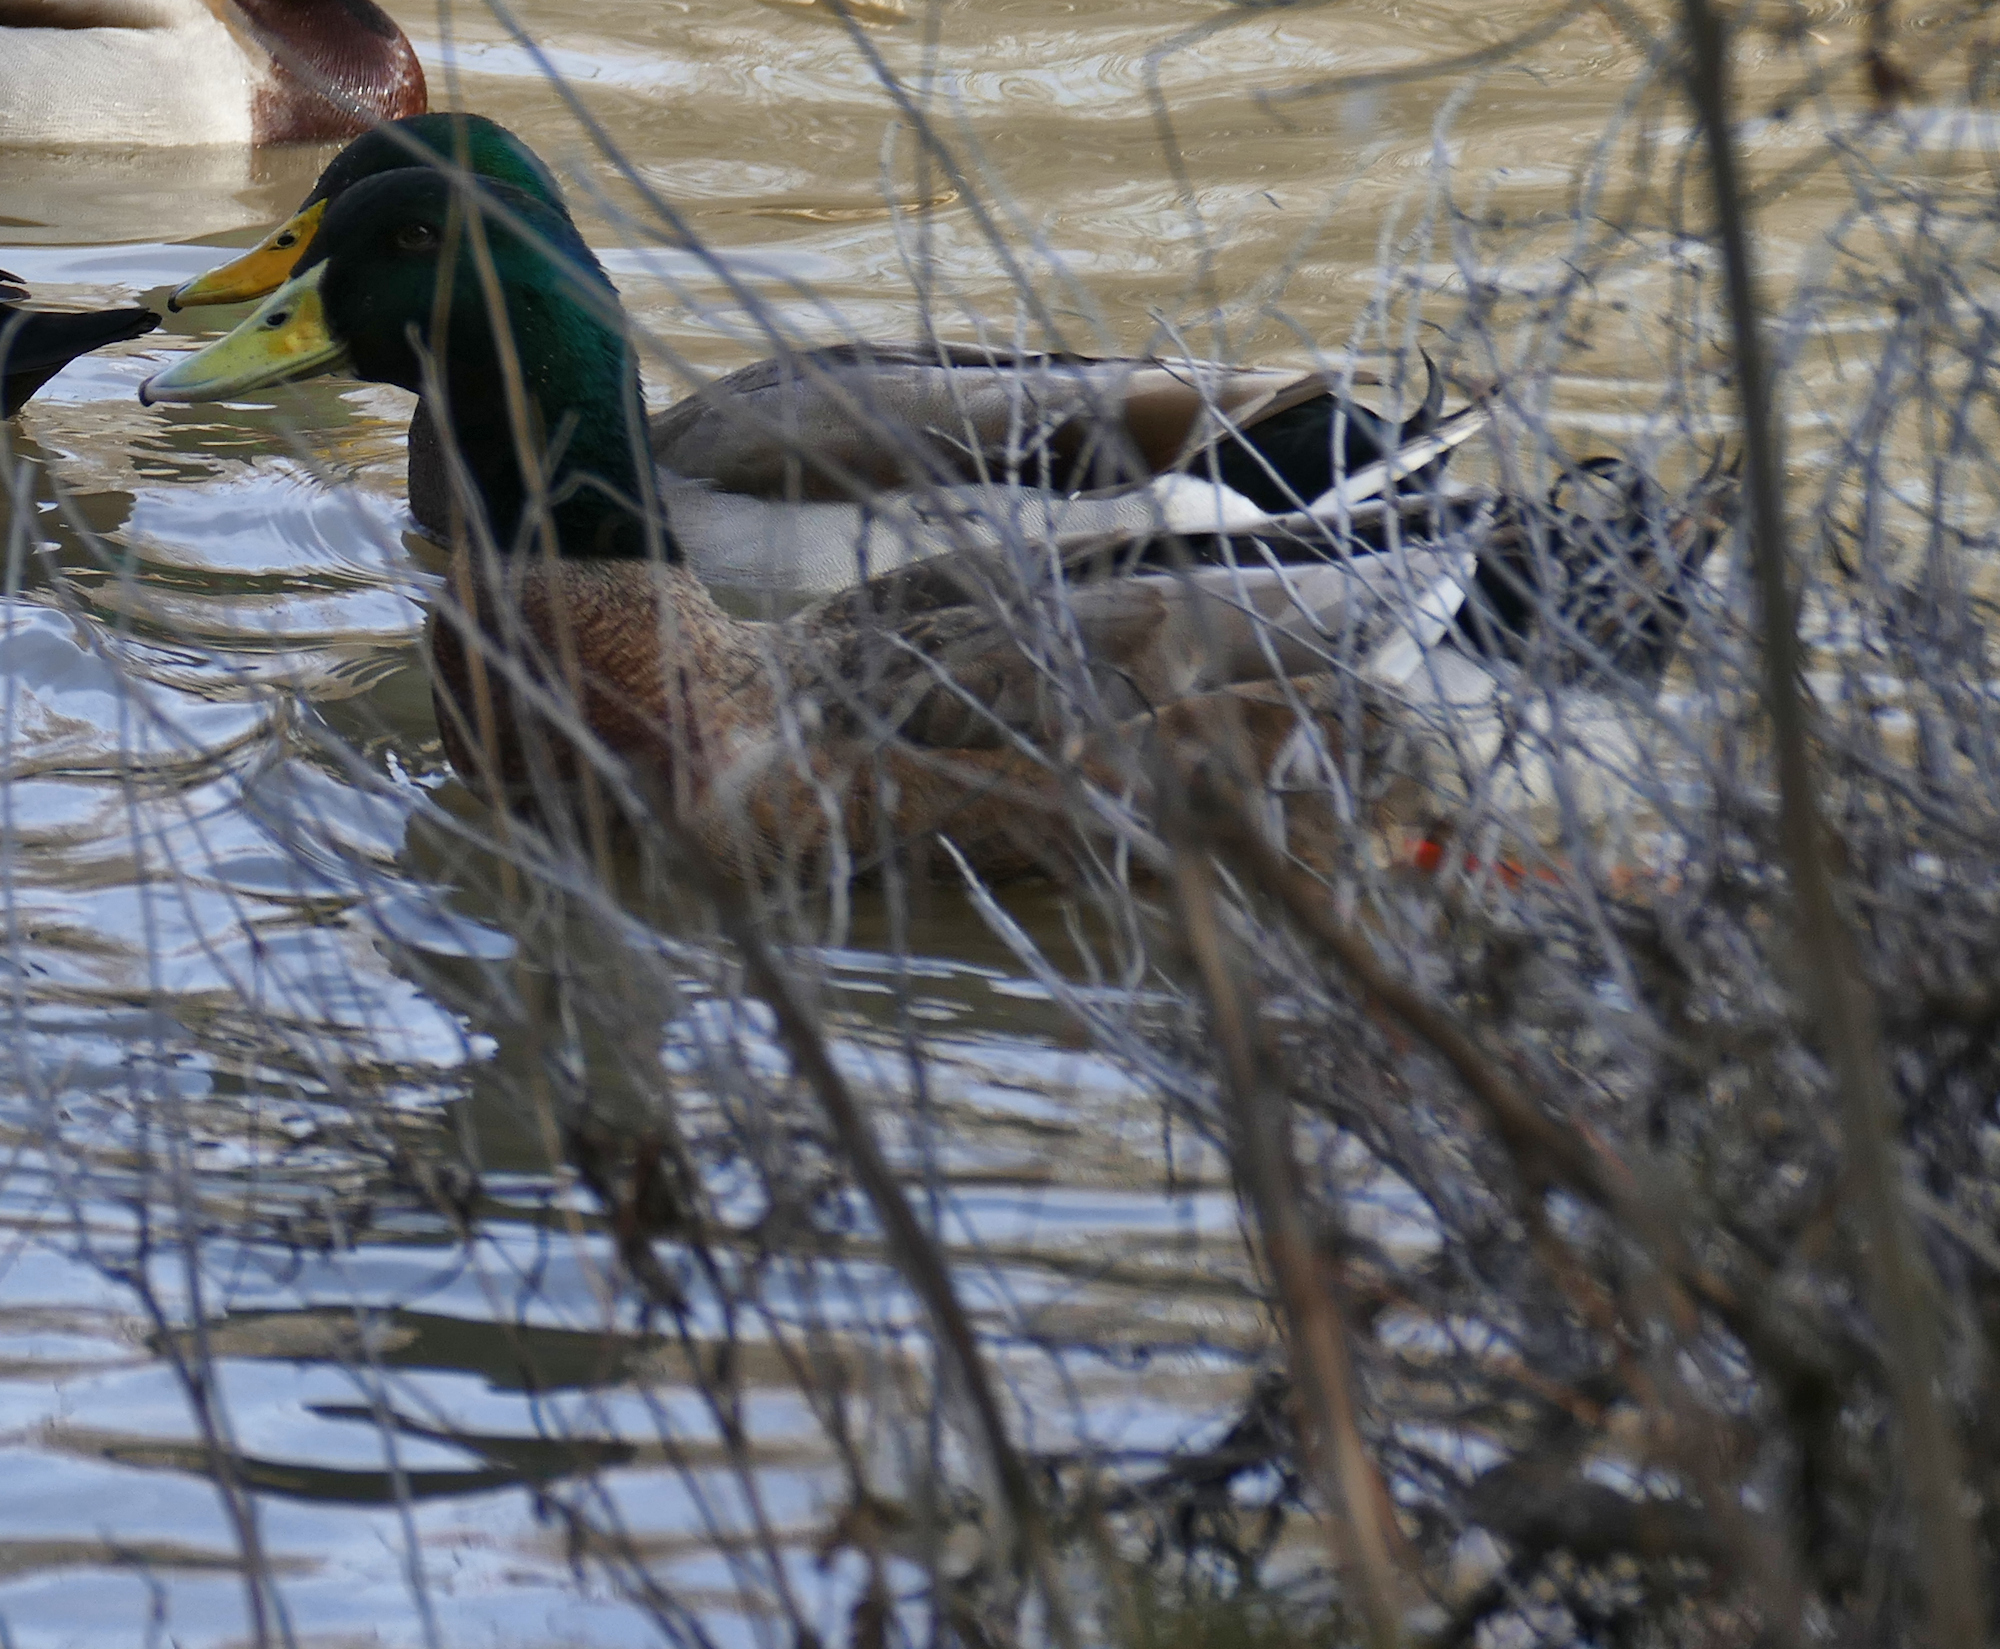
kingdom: Animalia
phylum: Chordata
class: Aves
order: Anseriformes
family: Anatidae
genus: Anas
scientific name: Anas platyrhynchos
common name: Mallard
